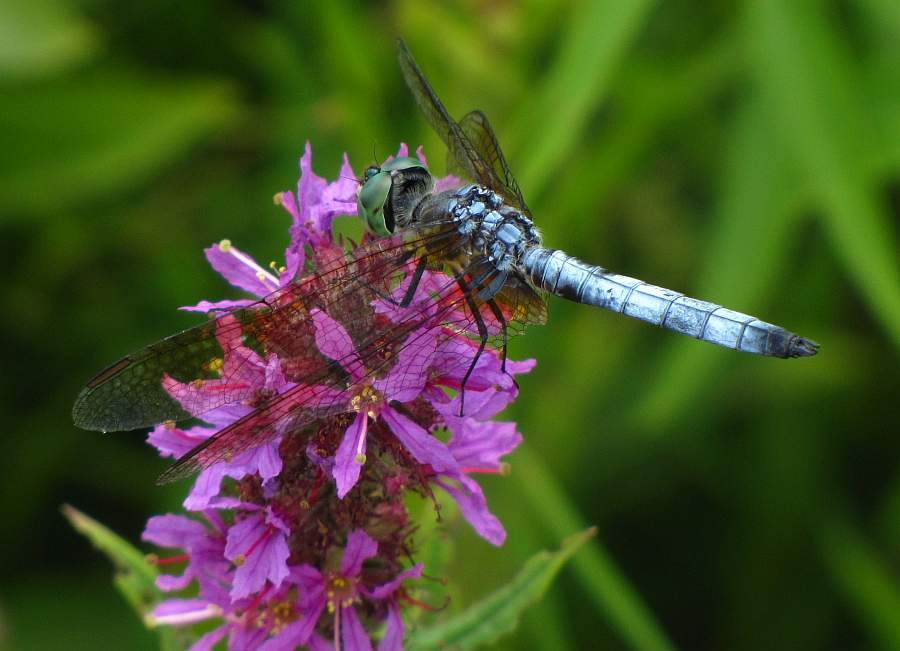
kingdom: Animalia
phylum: Arthropoda
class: Insecta
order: Odonata
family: Libellulidae
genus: Pachydiplax
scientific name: Pachydiplax longipennis
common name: Blue dasher
